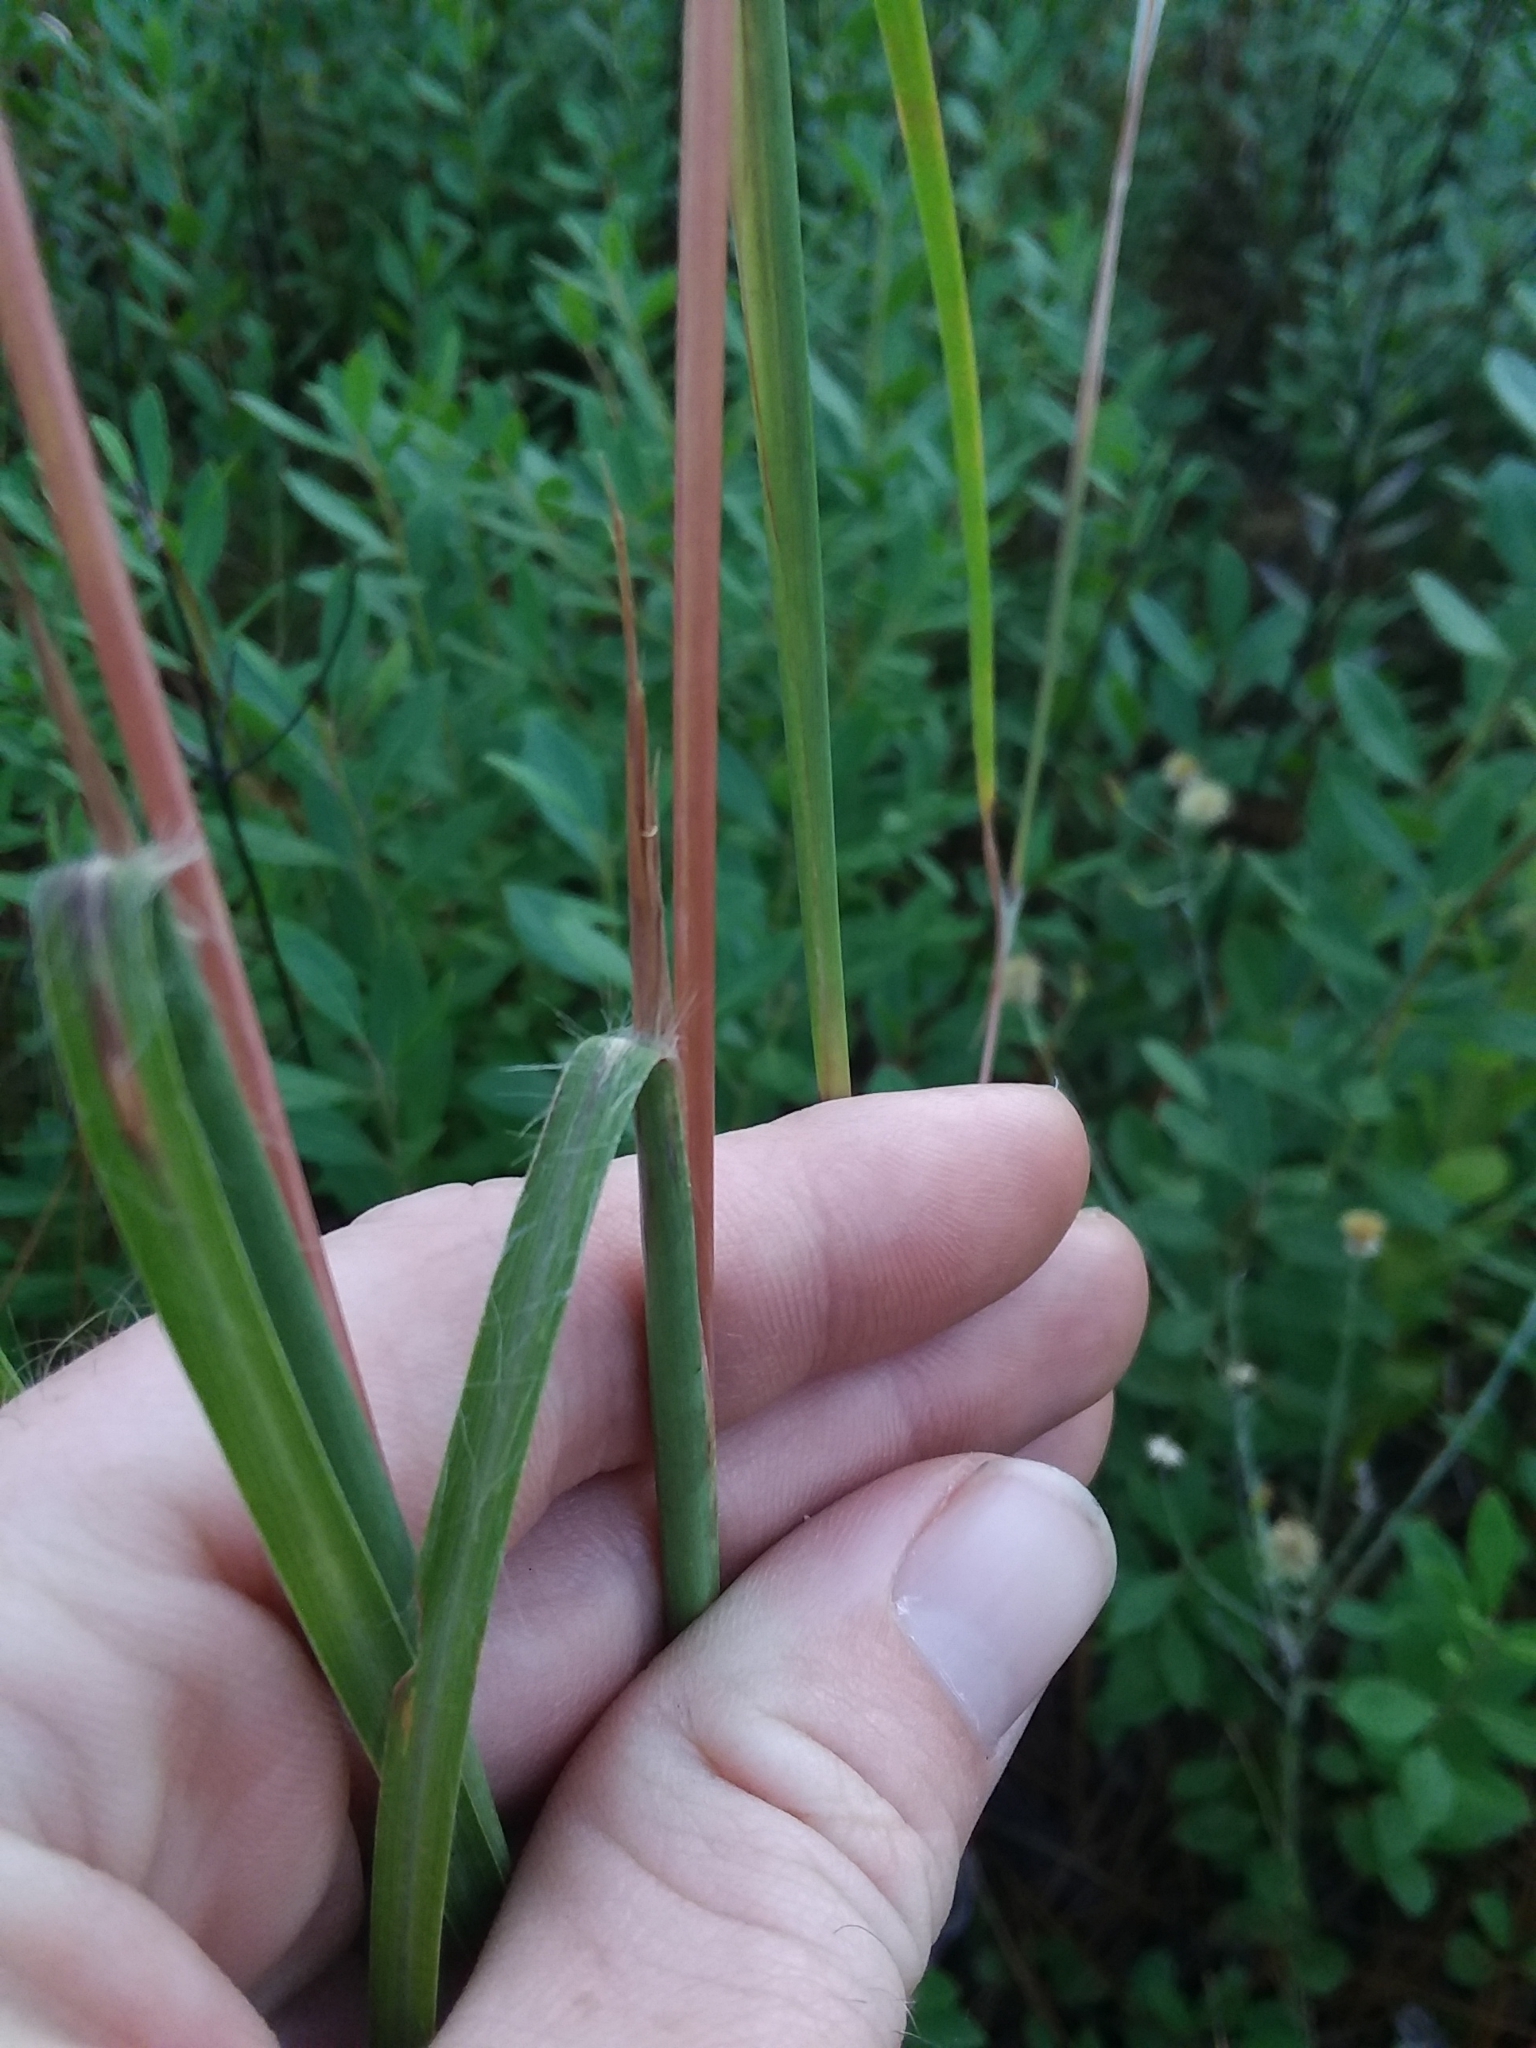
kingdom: Plantae
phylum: Tracheophyta
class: Liliopsida
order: Poales
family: Poaceae
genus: Andropogon
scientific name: Andropogon gyrans
